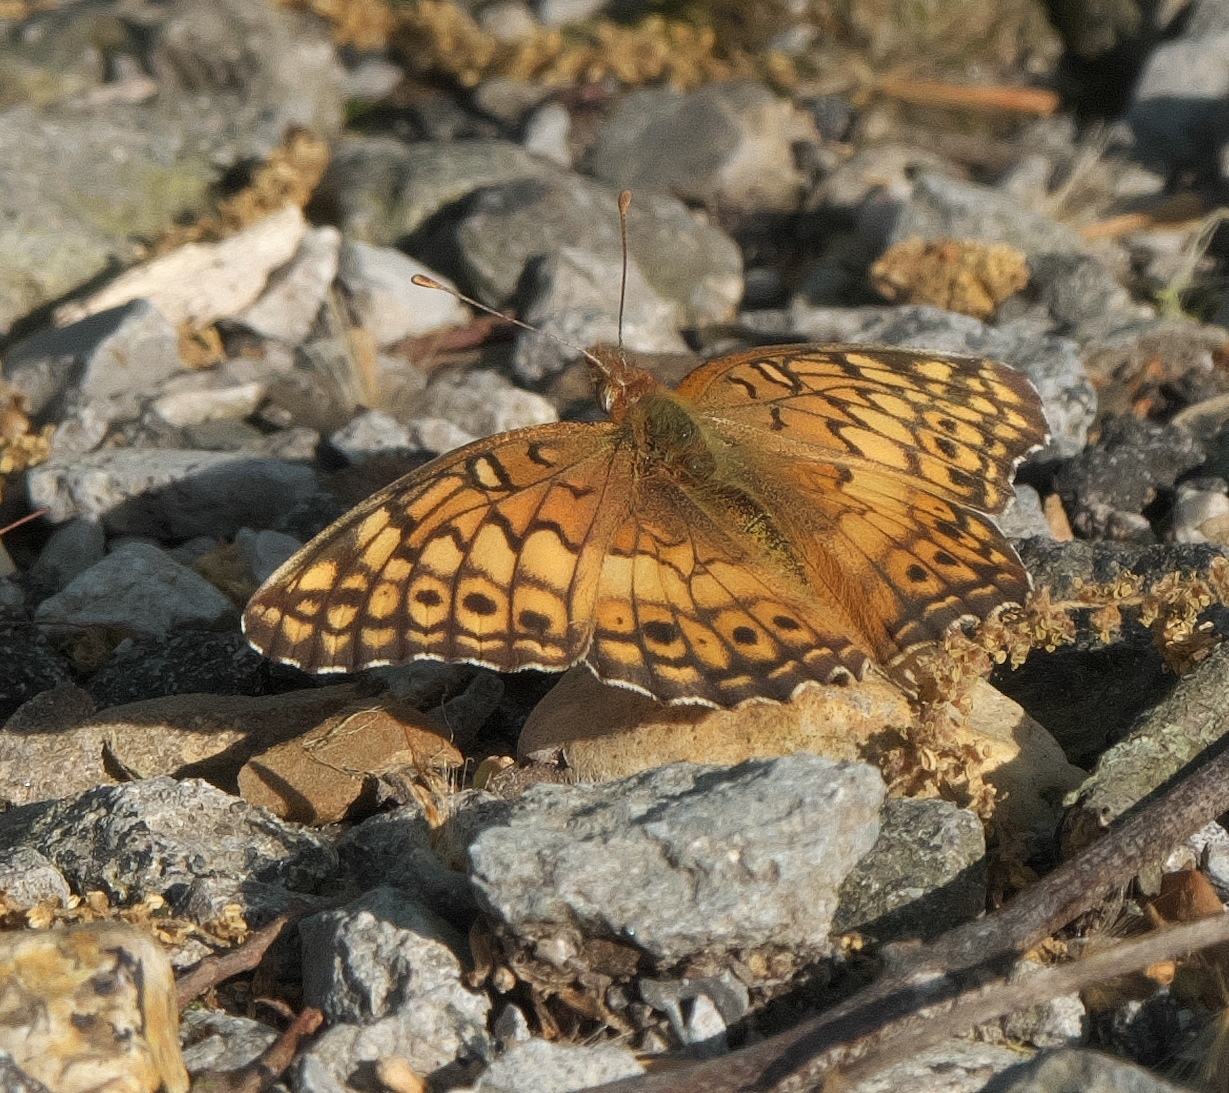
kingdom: Animalia
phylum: Arthropoda
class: Insecta
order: Lepidoptera
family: Nymphalidae
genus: Euptoieta
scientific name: Euptoieta claudia
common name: Variegated fritillary
